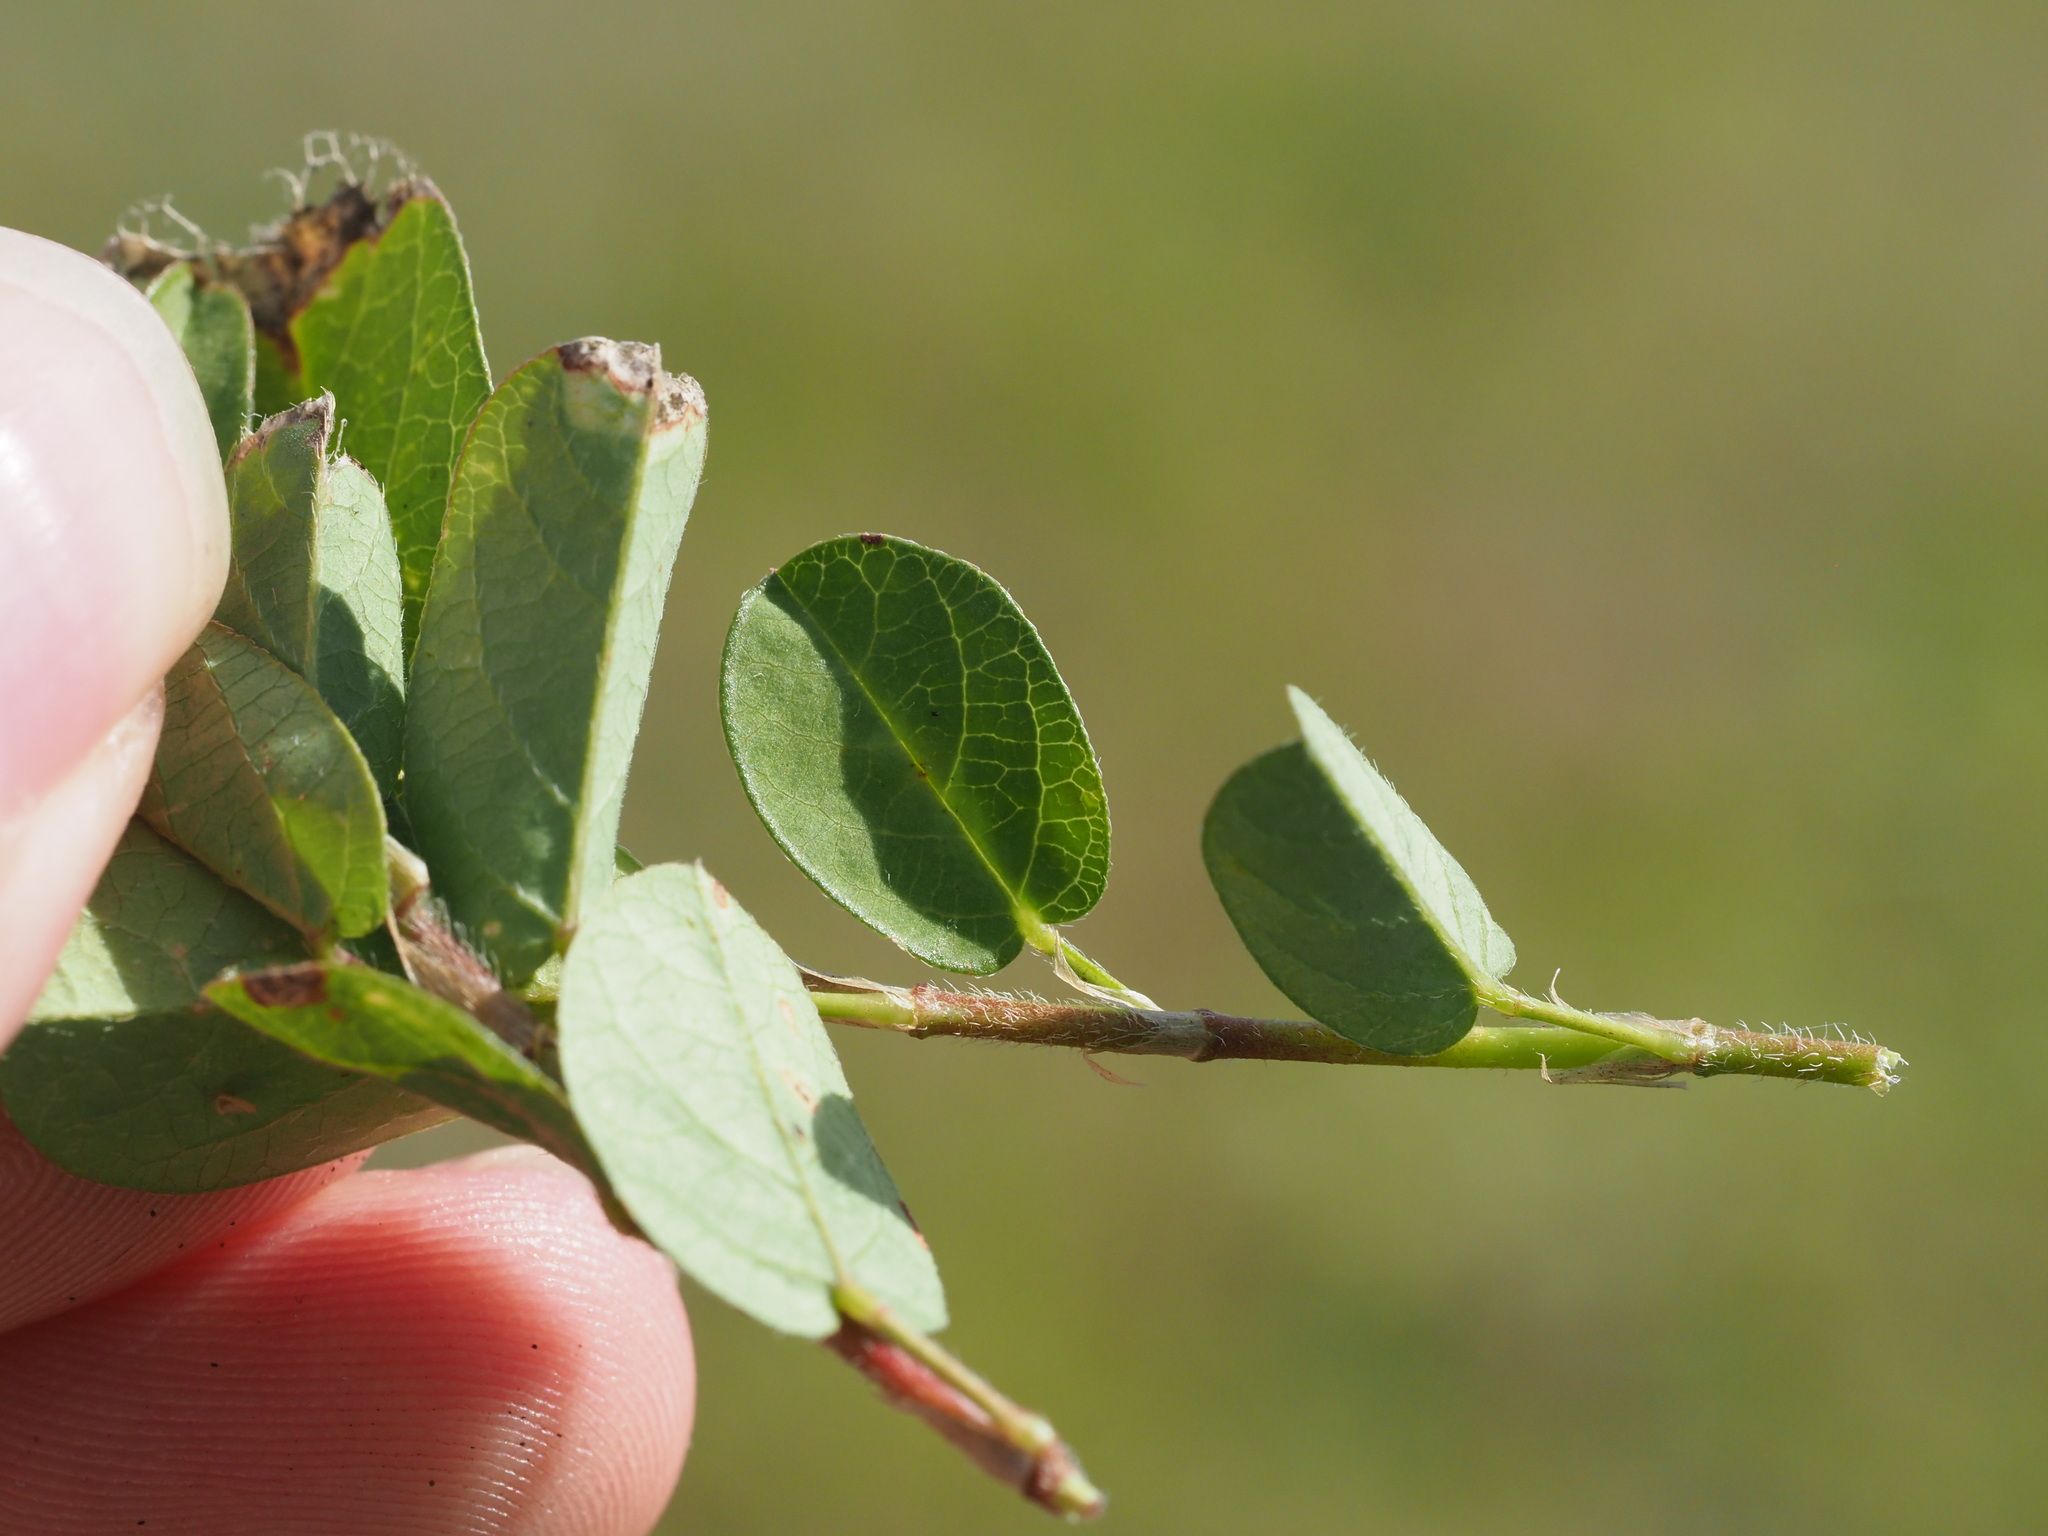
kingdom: Plantae
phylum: Tracheophyta
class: Magnoliopsida
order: Fabales
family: Fabaceae
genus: Alysicarpus
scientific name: Alysicarpus vaginalis
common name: White moneywort
